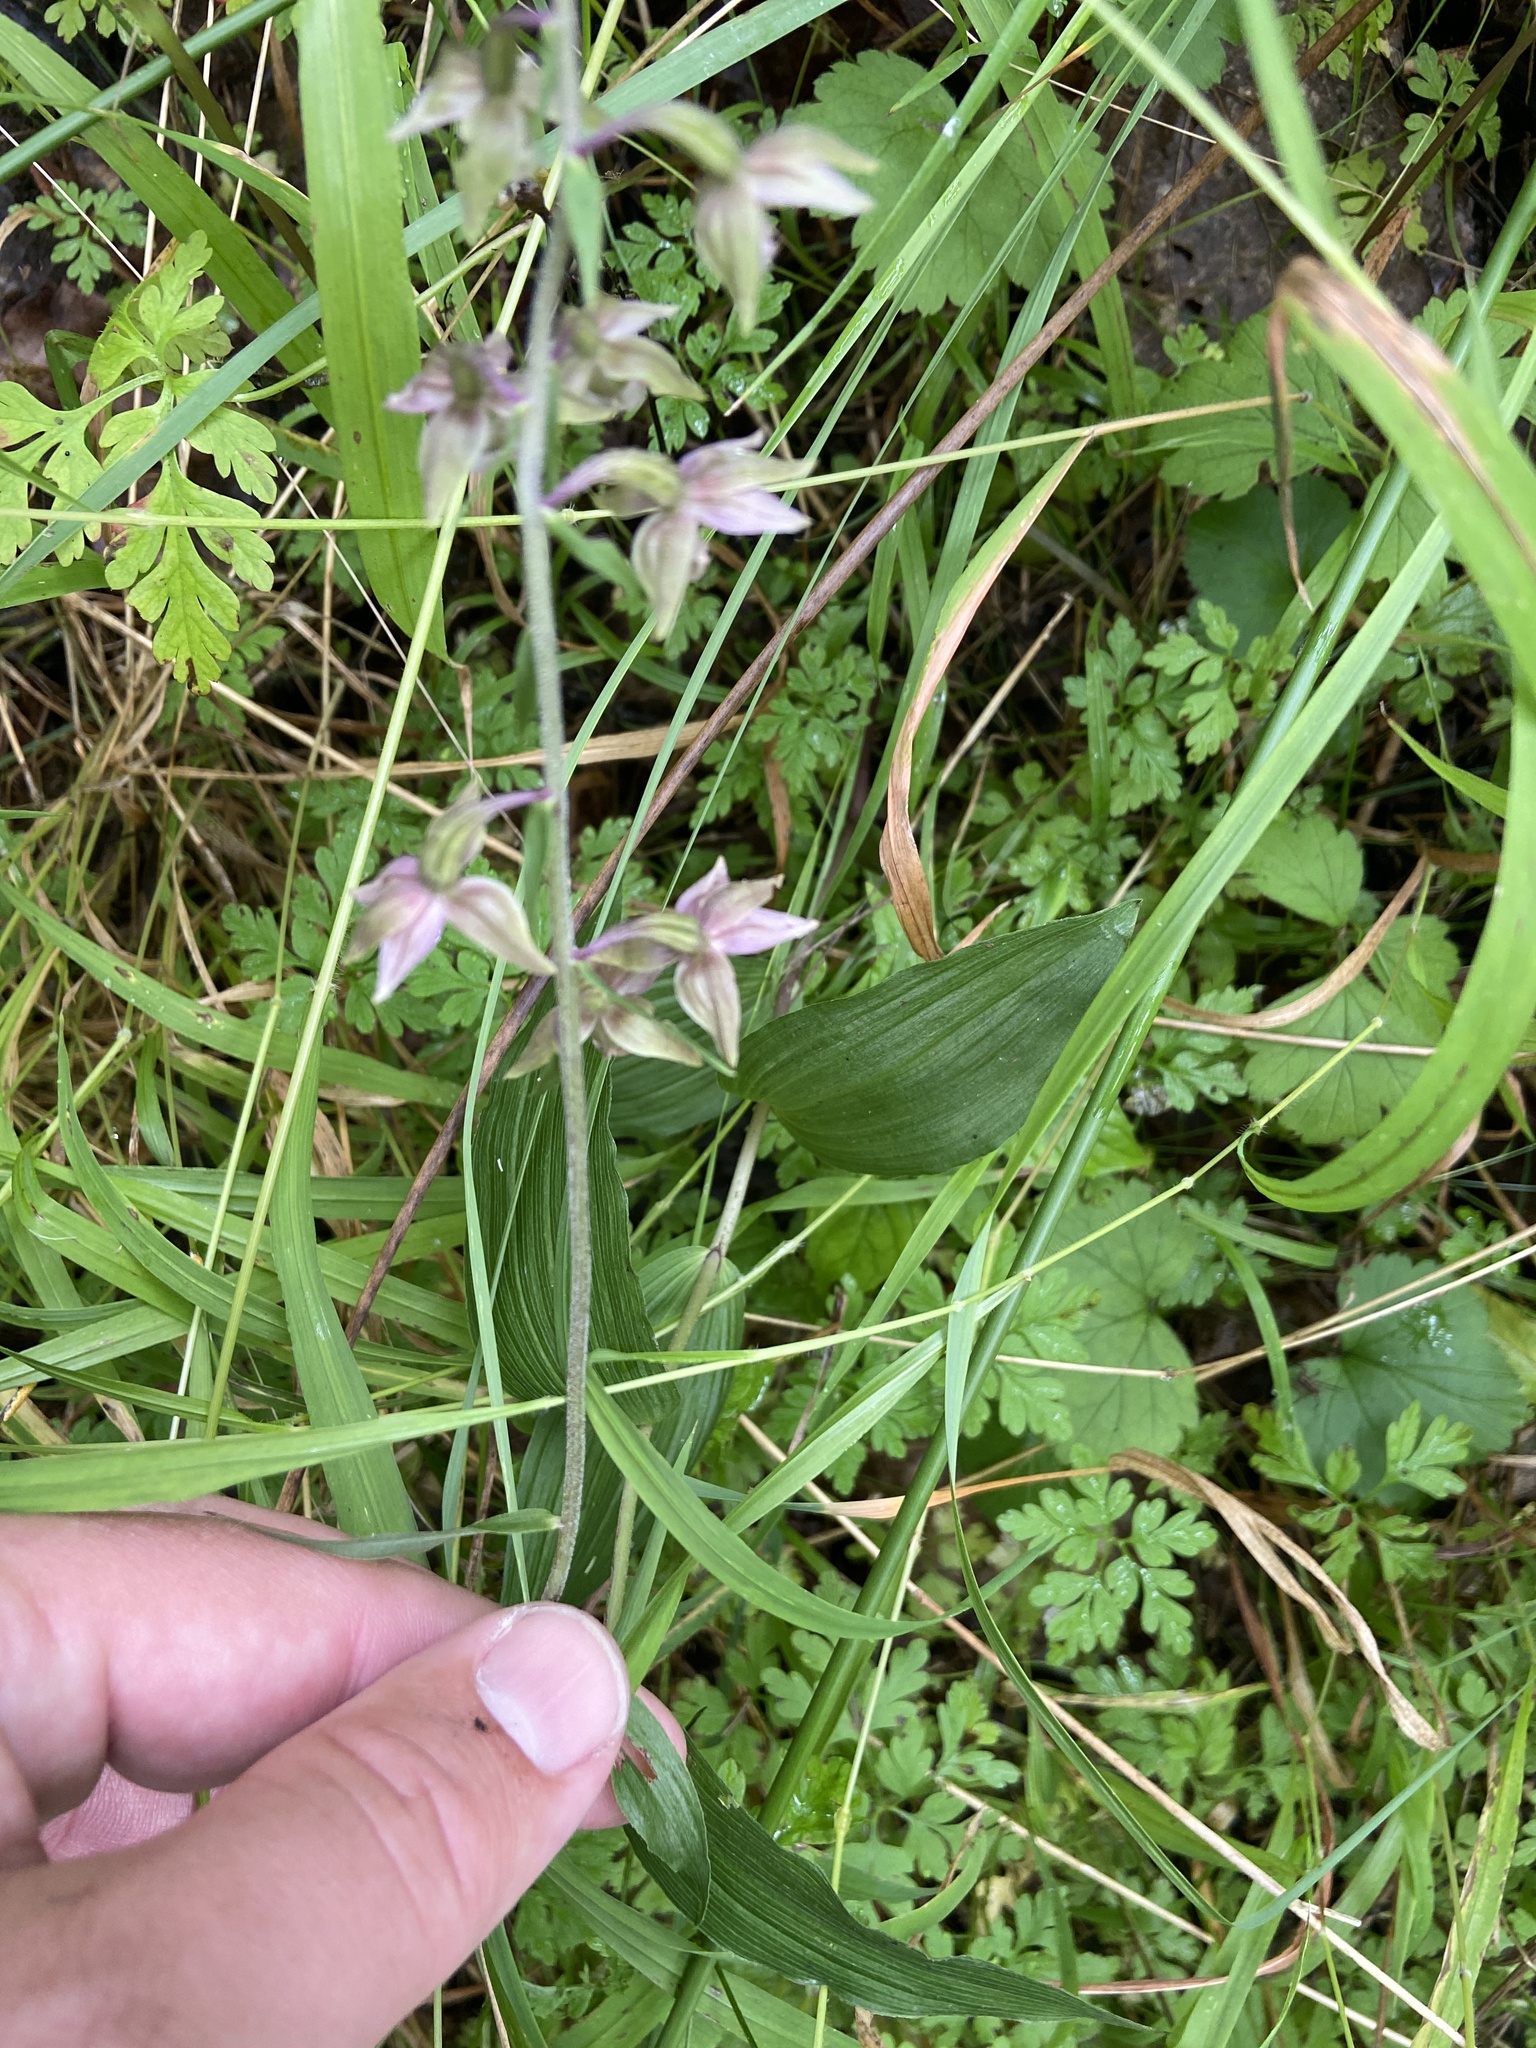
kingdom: Plantae
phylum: Tracheophyta
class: Liliopsida
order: Asparagales
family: Orchidaceae
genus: Epipactis
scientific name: Epipactis helleborine
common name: Broad-leaved helleborine
